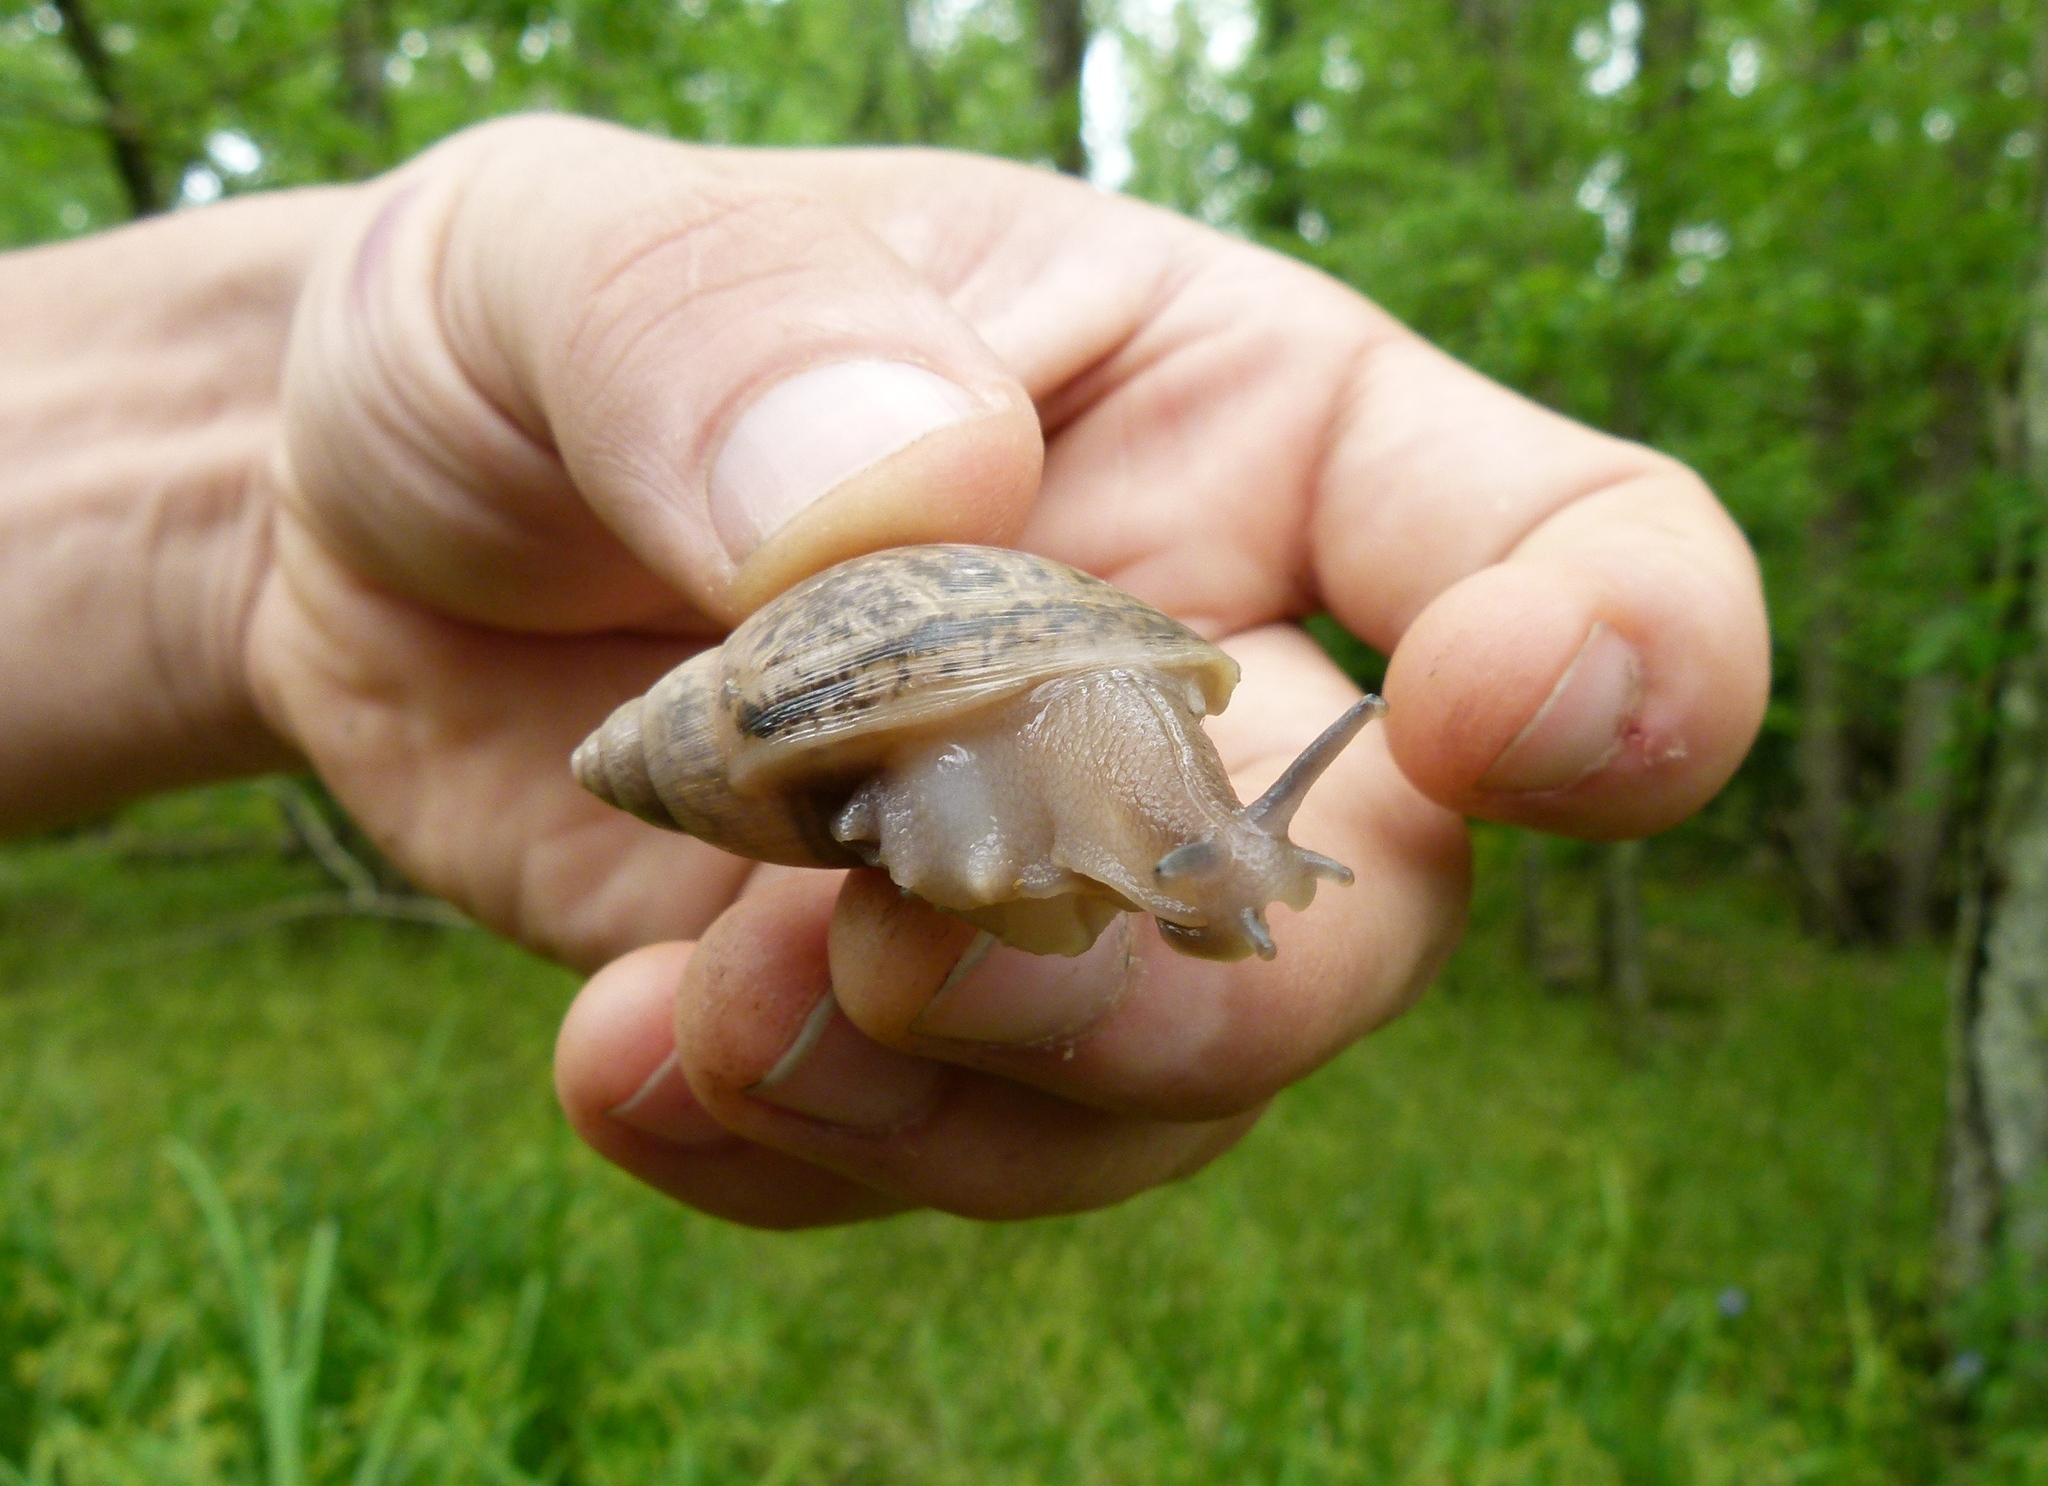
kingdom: Animalia
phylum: Mollusca
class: Gastropoda
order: Stylommatophora
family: Spiraxidae
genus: Euglandina
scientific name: Euglandina rosea
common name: Rosy wolfsnail
